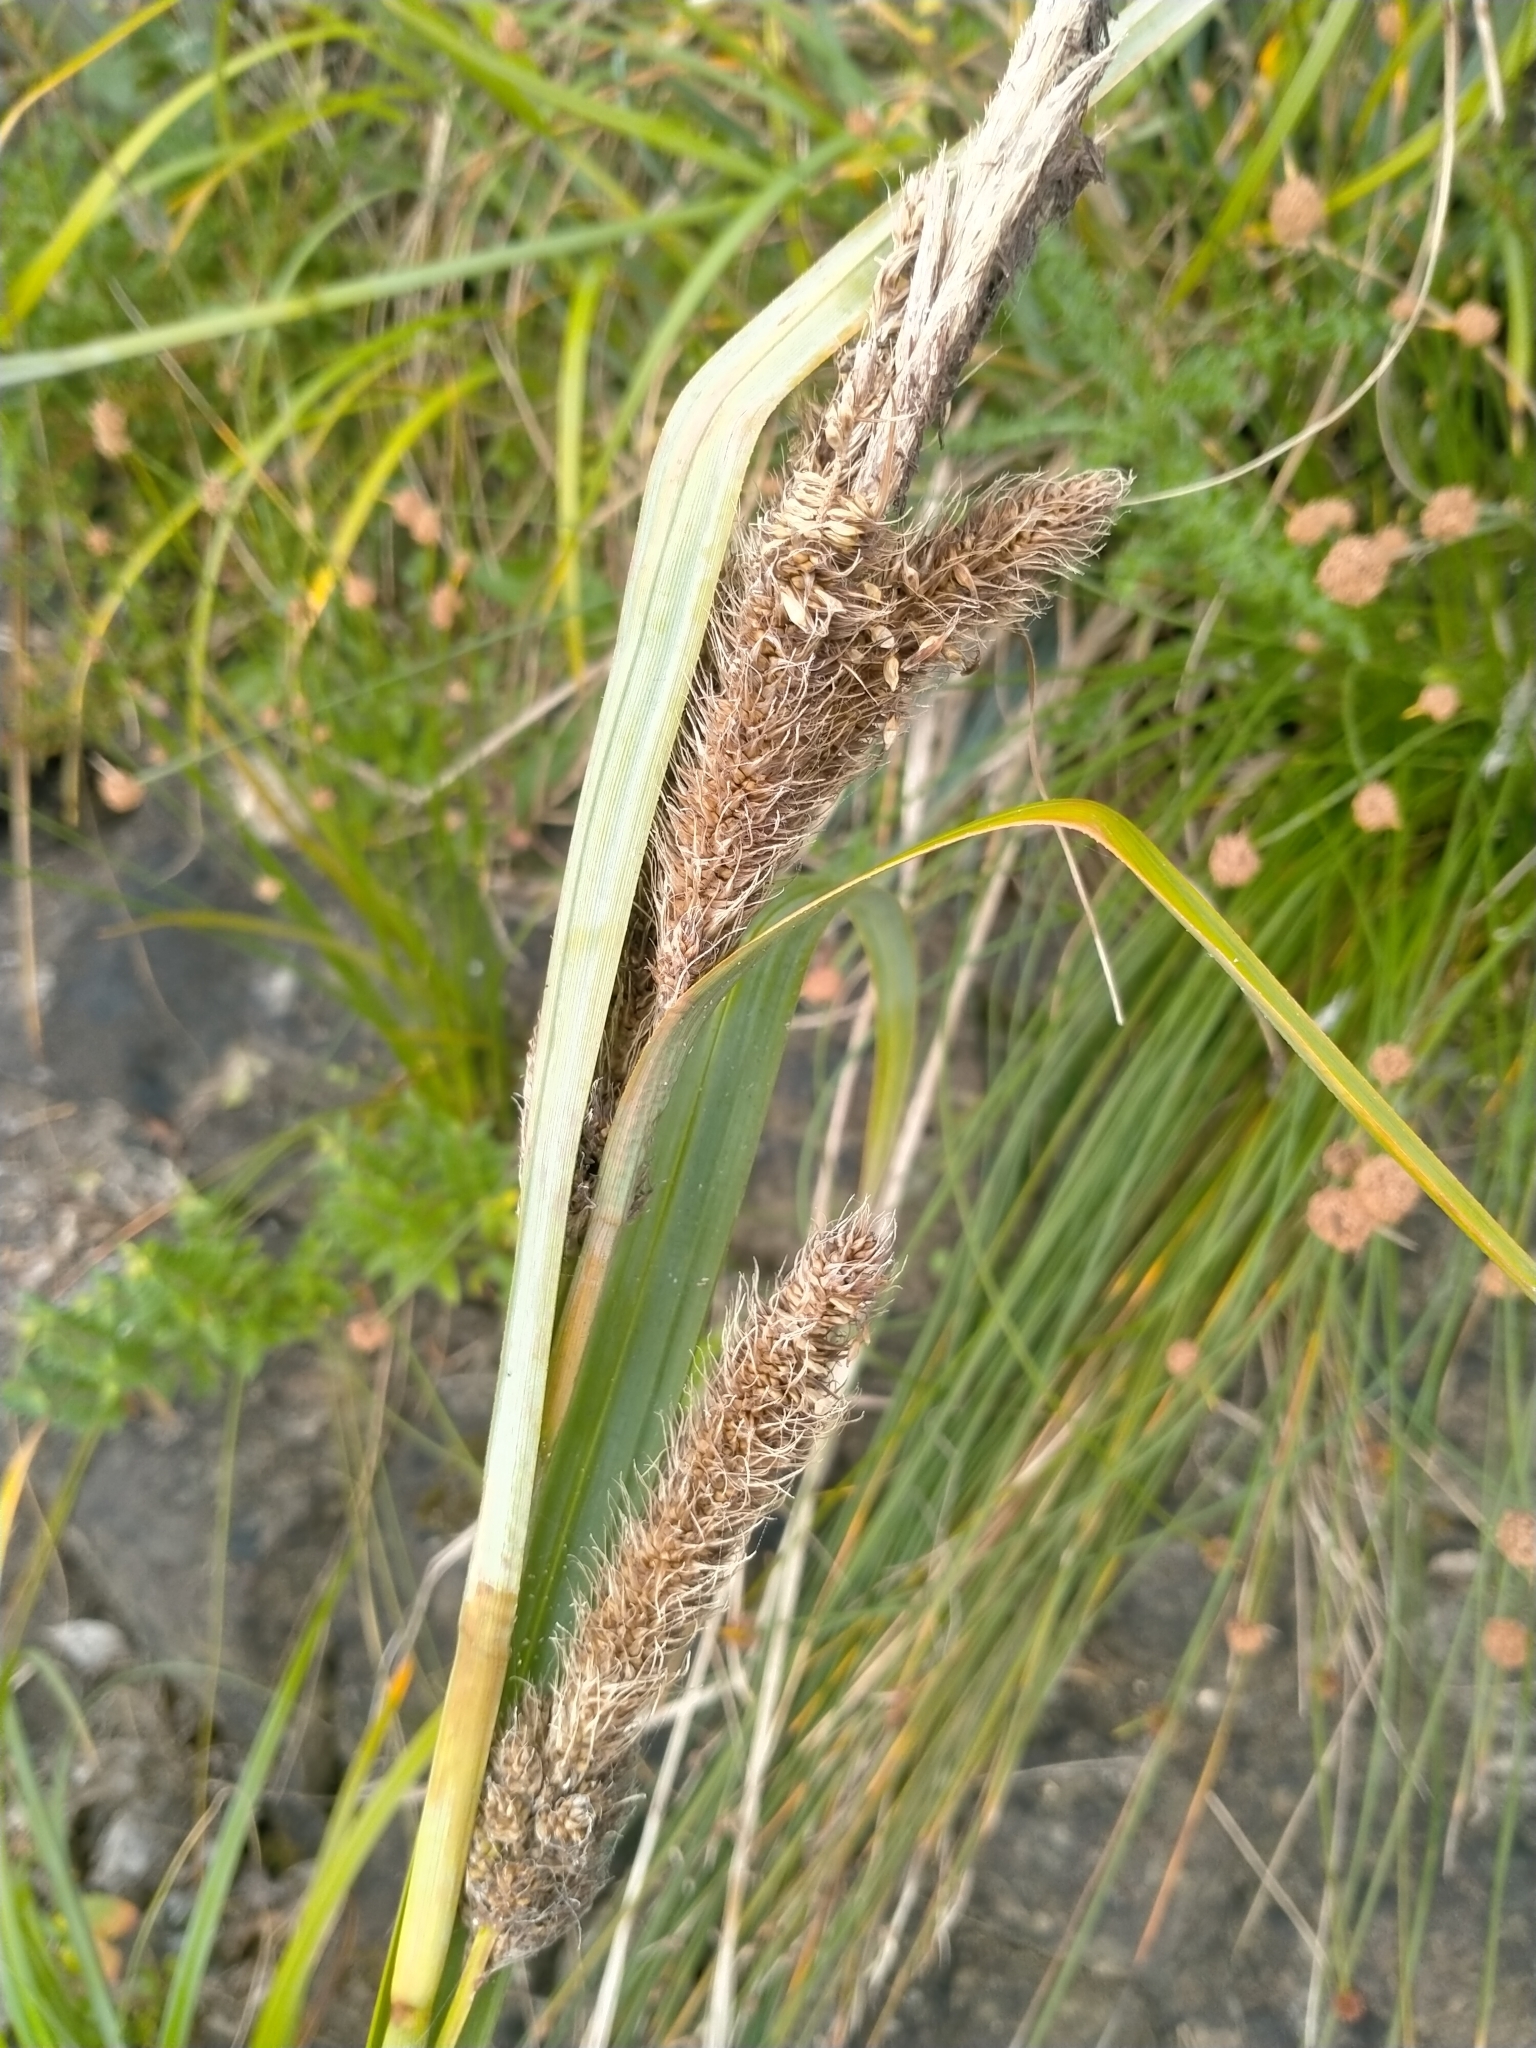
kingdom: Plantae
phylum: Tracheophyta
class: Liliopsida
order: Poales
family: Cyperaceae
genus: Carex
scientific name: Carex trifida
